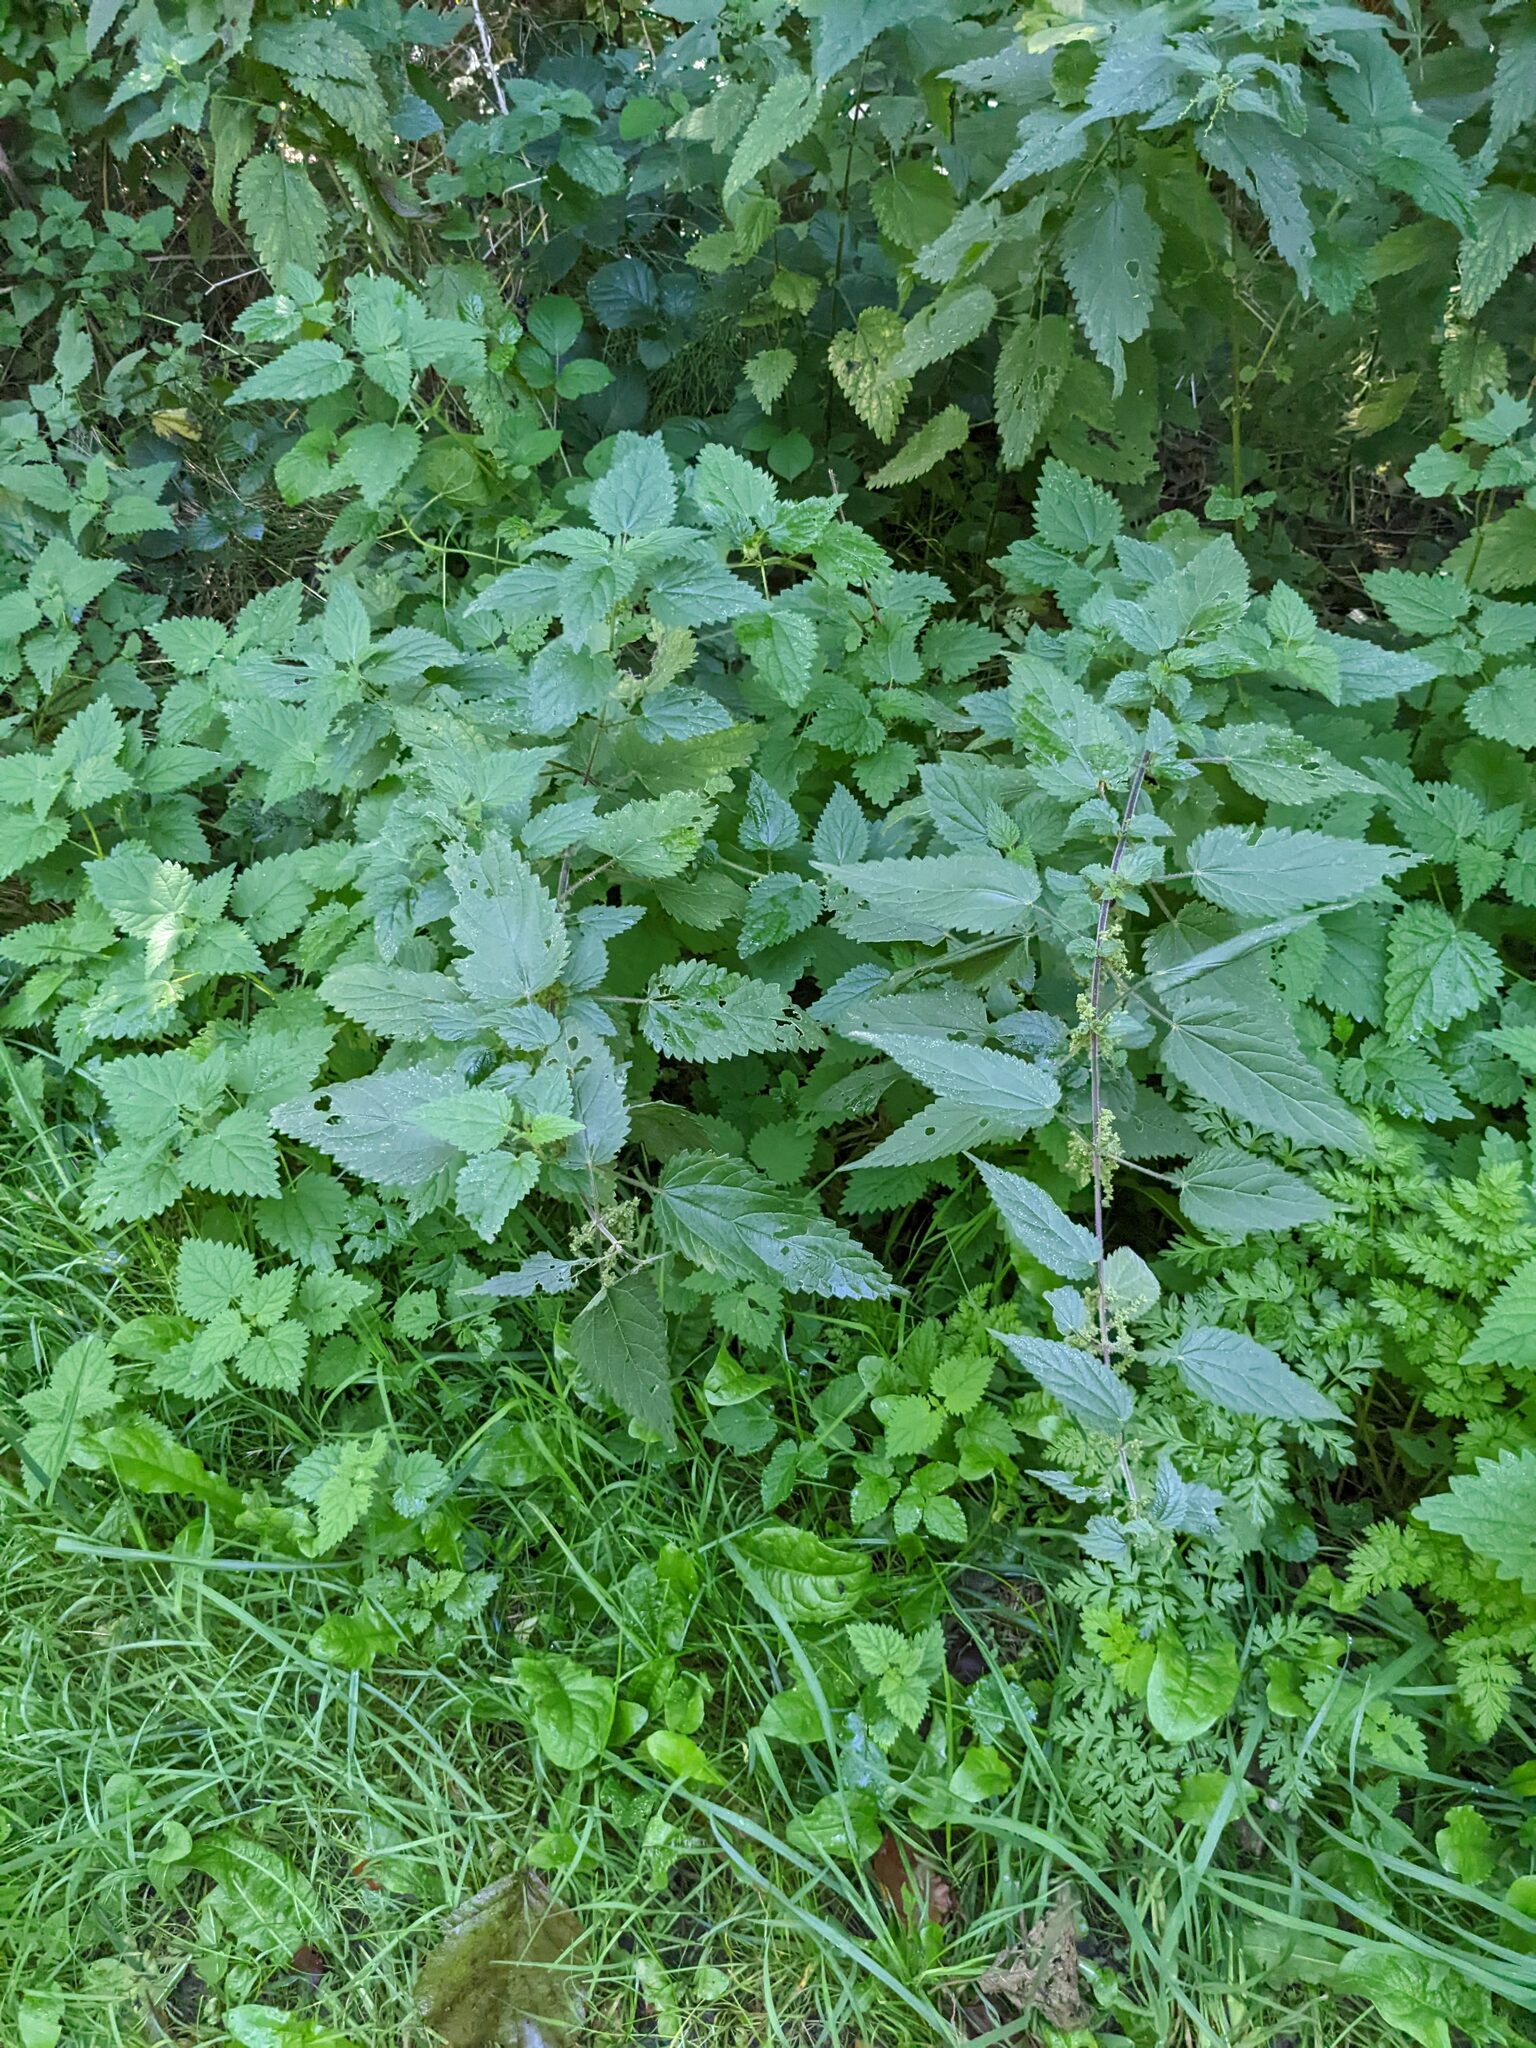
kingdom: Plantae
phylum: Tracheophyta
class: Magnoliopsida
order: Rosales
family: Urticaceae
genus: Urtica
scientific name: Urtica dioica
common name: Common nettle
